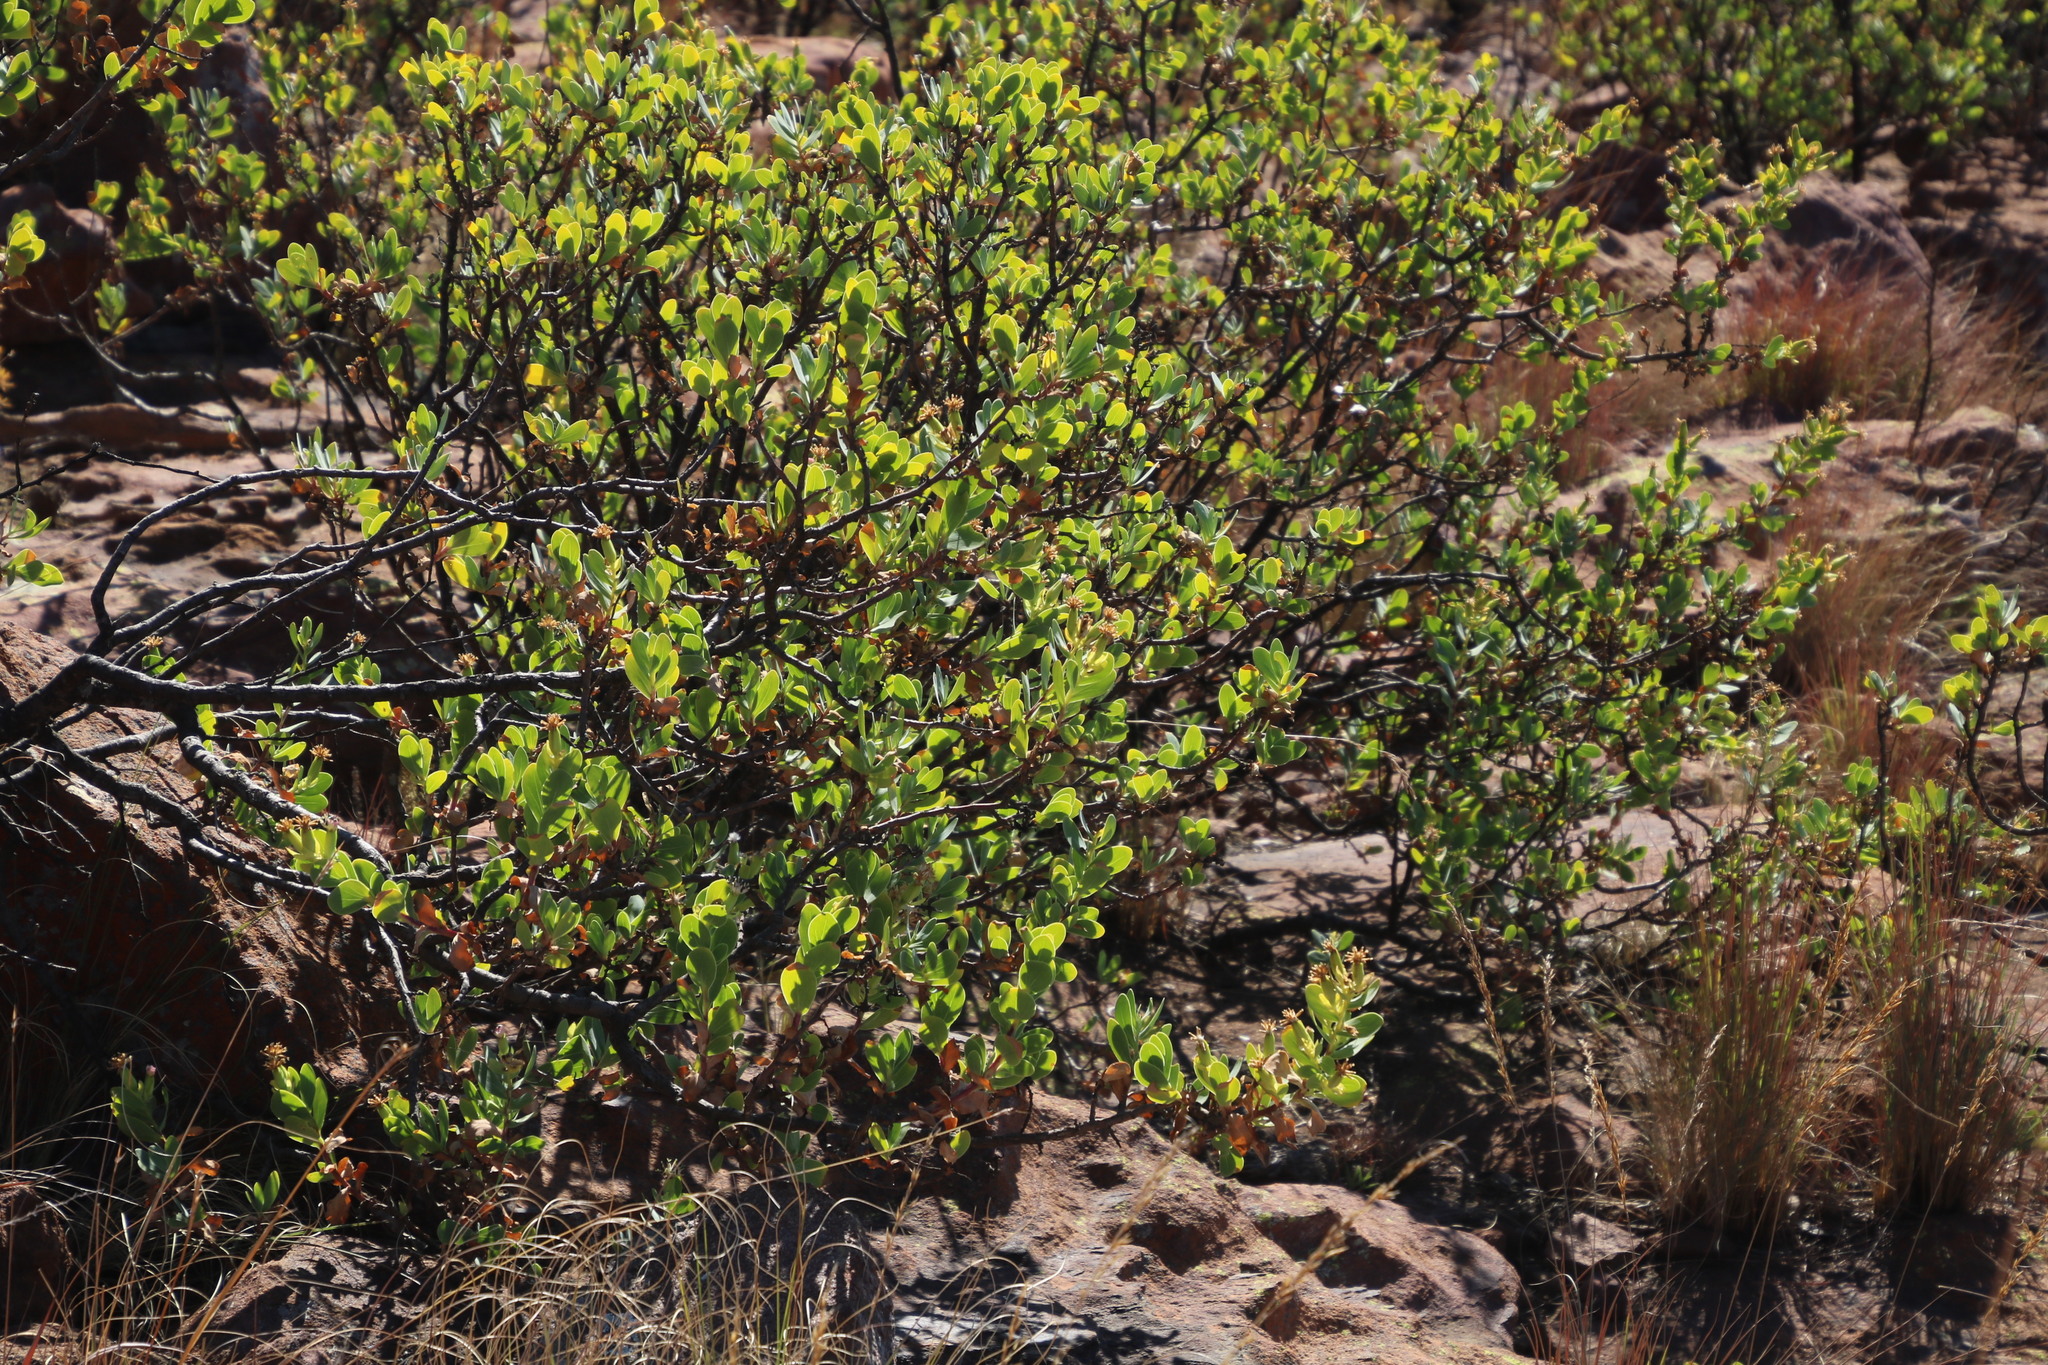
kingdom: Plantae
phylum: Tracheophyta
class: Magnoliopsida
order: Asterales
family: Asteraceae
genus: Lopholaena
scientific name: Lopholaena coriifolia
